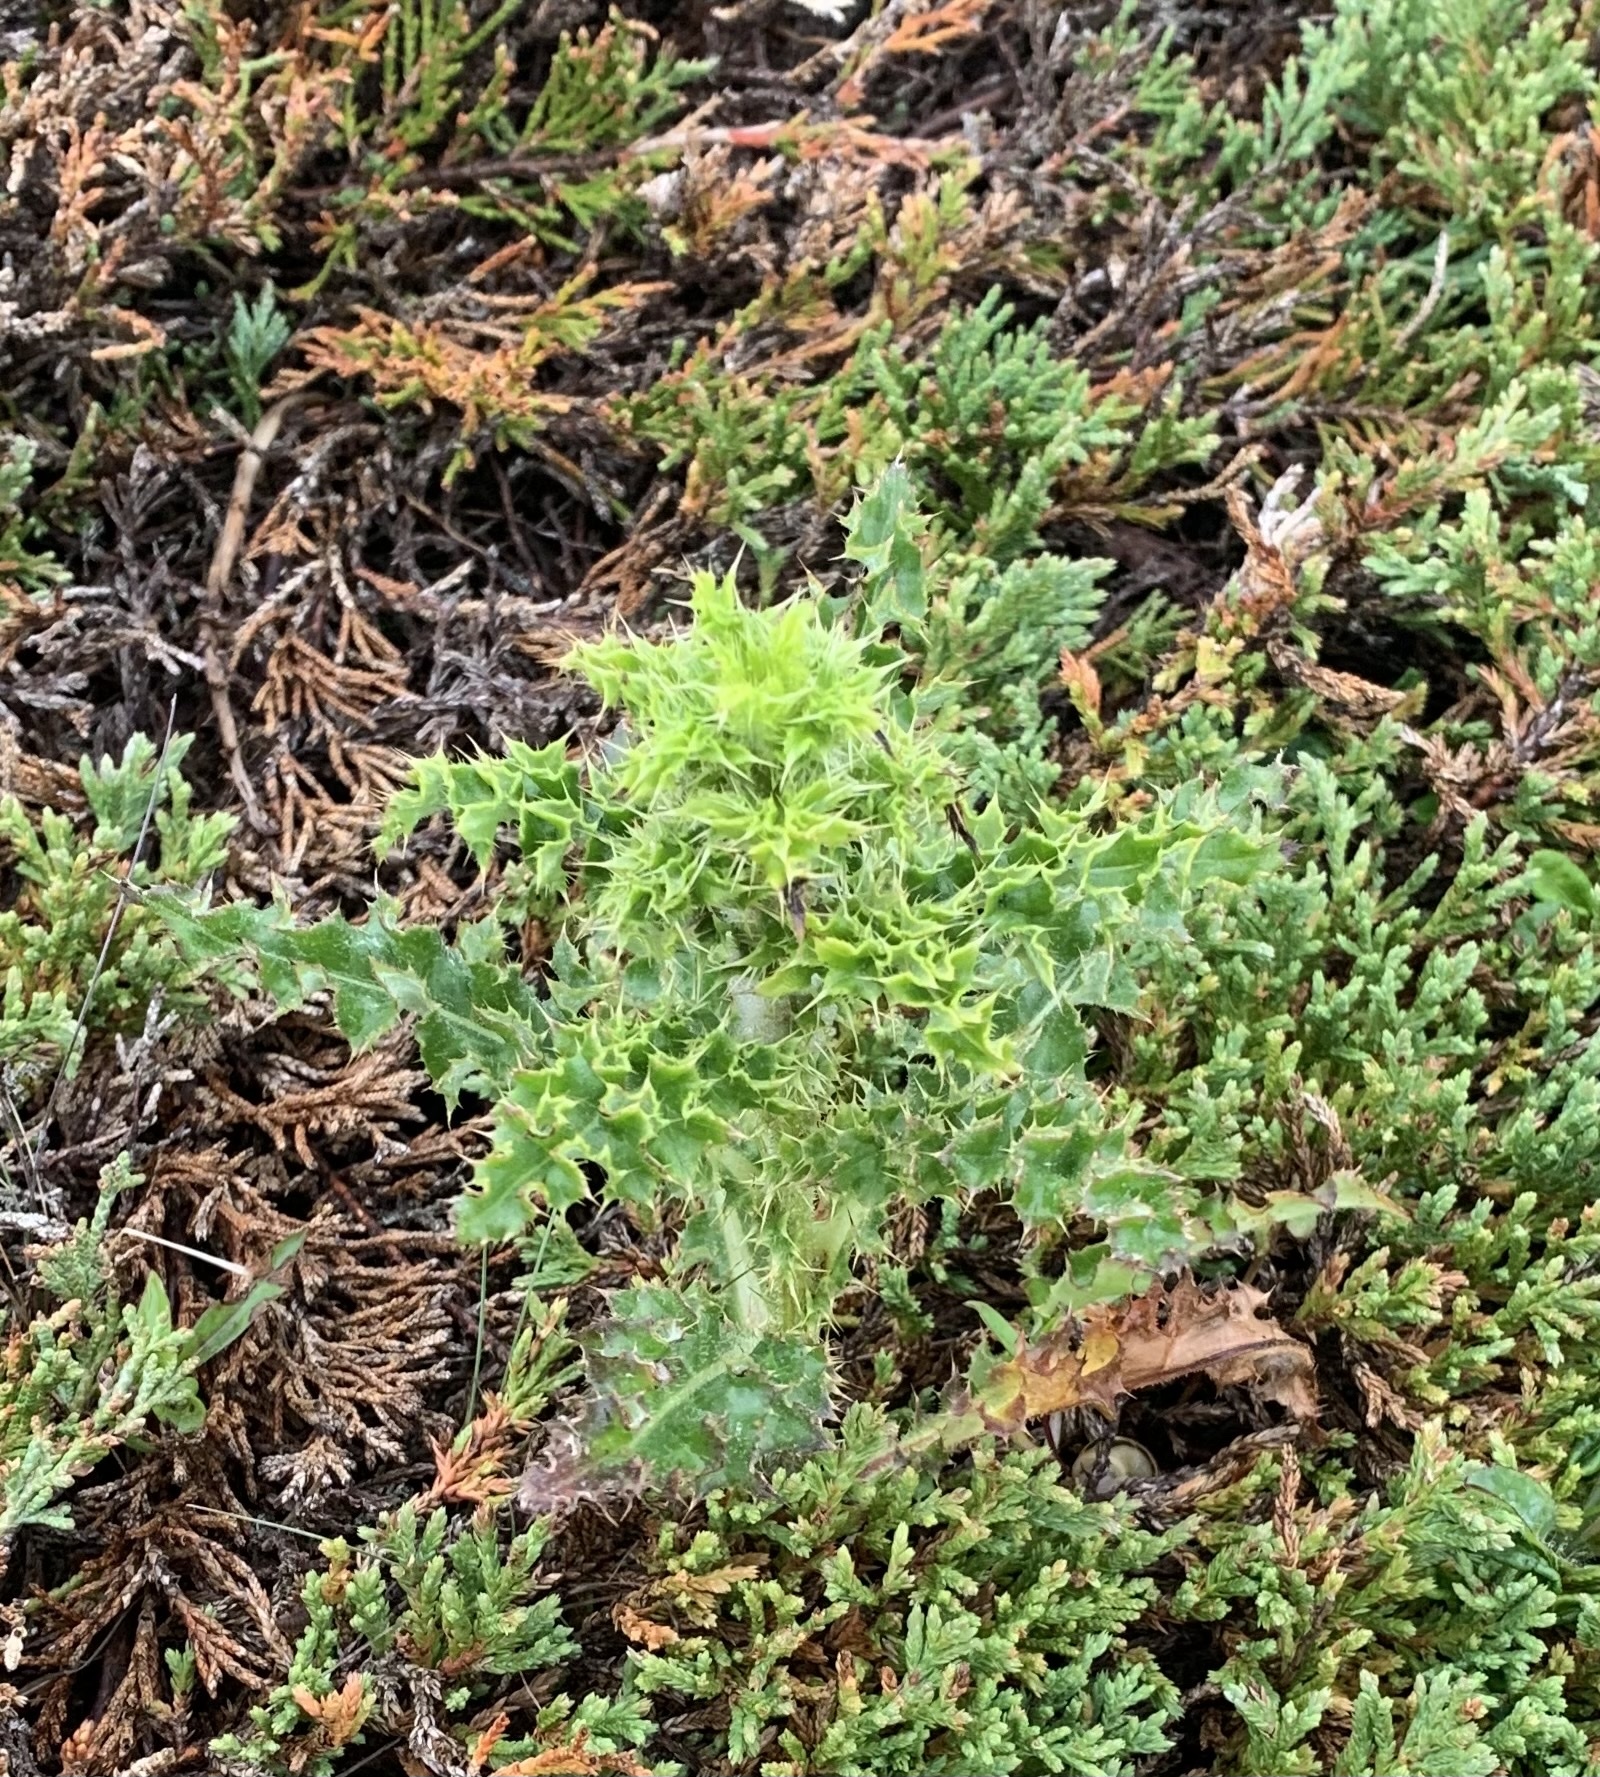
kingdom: Plantae
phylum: Tracheophyta
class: Magnoliopsida
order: Asterales
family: Asteraceae
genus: Cirsium
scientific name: Cirsium arvense
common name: Creeping thistle
